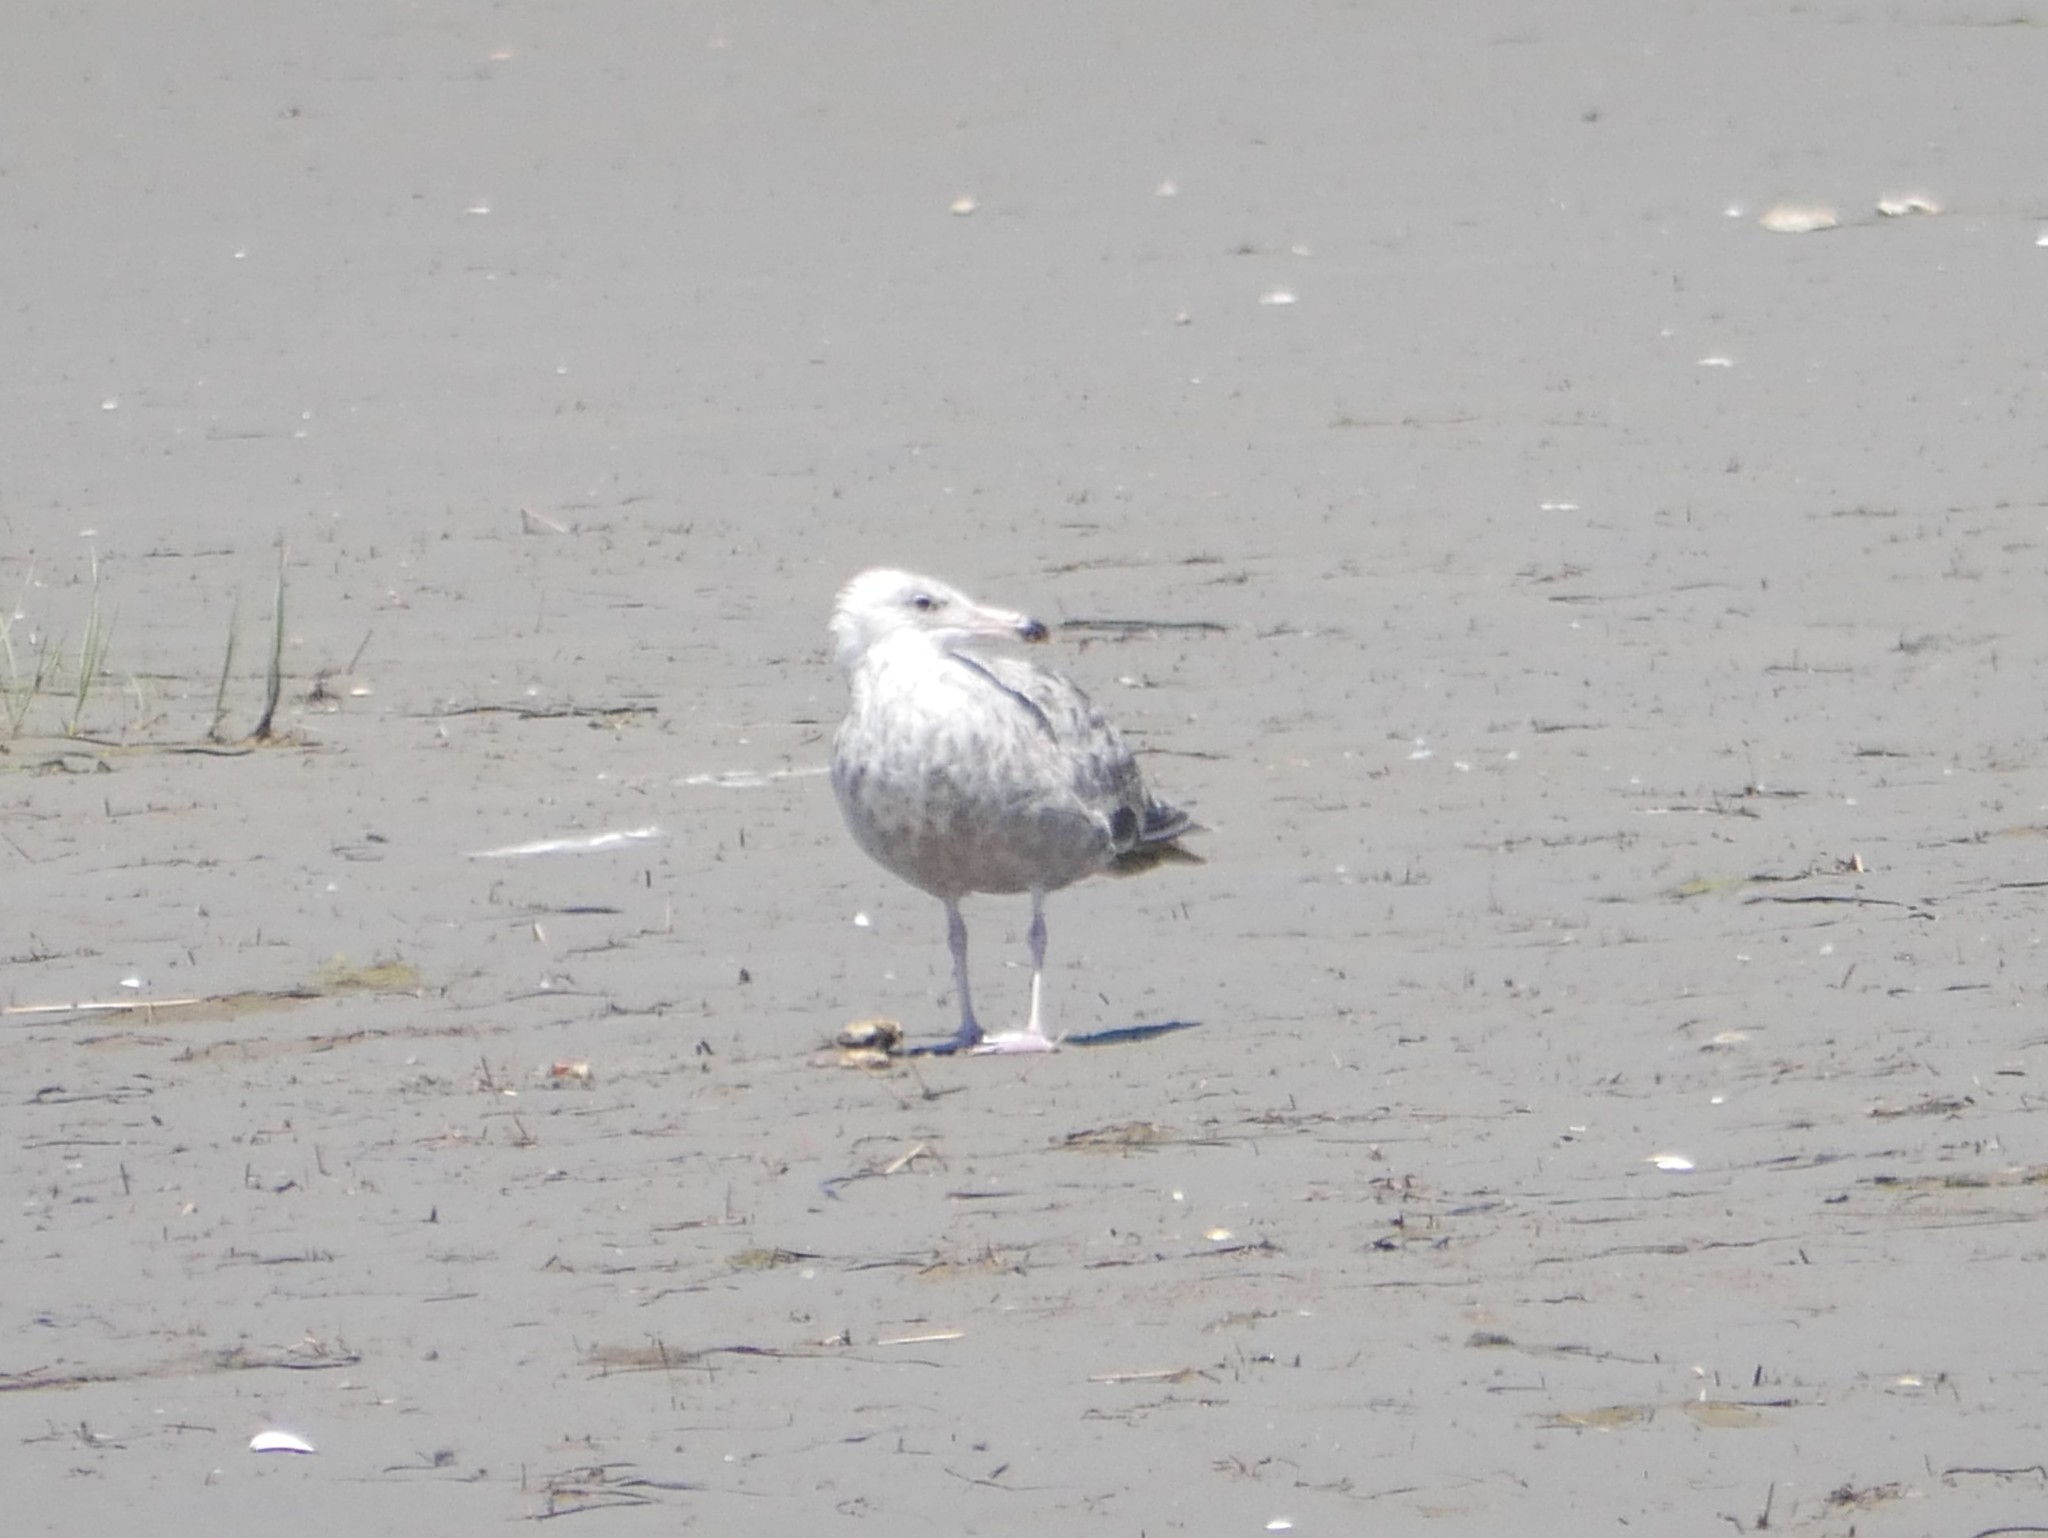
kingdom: Animalia
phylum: Chordata
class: Aves
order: Charadriiformes
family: Laridae
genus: Larus
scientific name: Larus argentatus
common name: Herring gull
